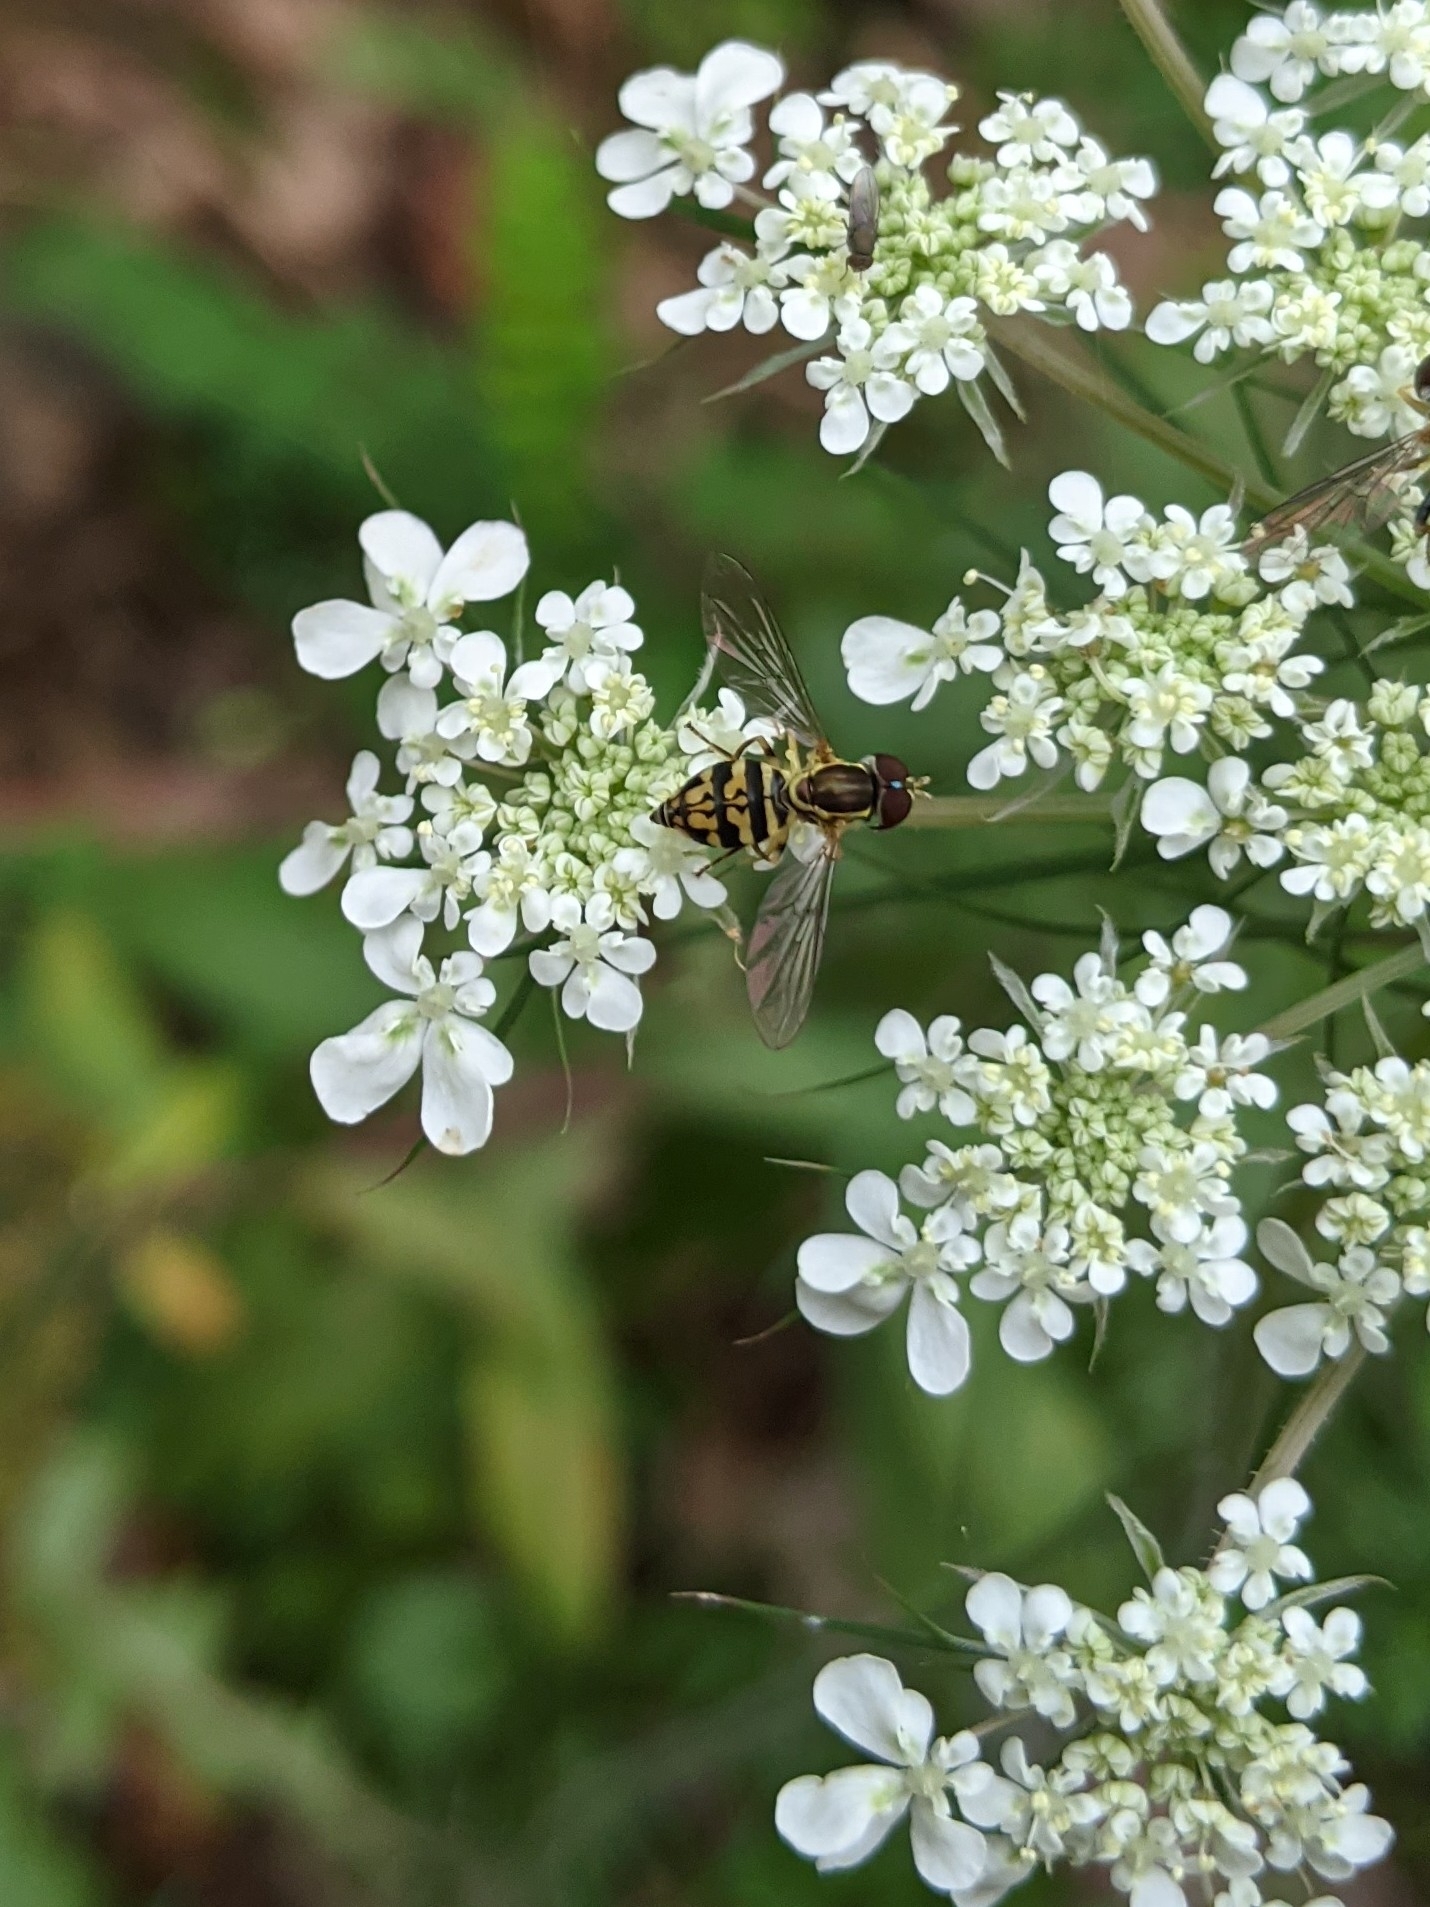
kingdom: Animalia
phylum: Arthropoda
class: Insecta
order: Diptera
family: Syrphidae
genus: Toxomerus
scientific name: Toxomerus geminatus
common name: Eastern calligrapher
